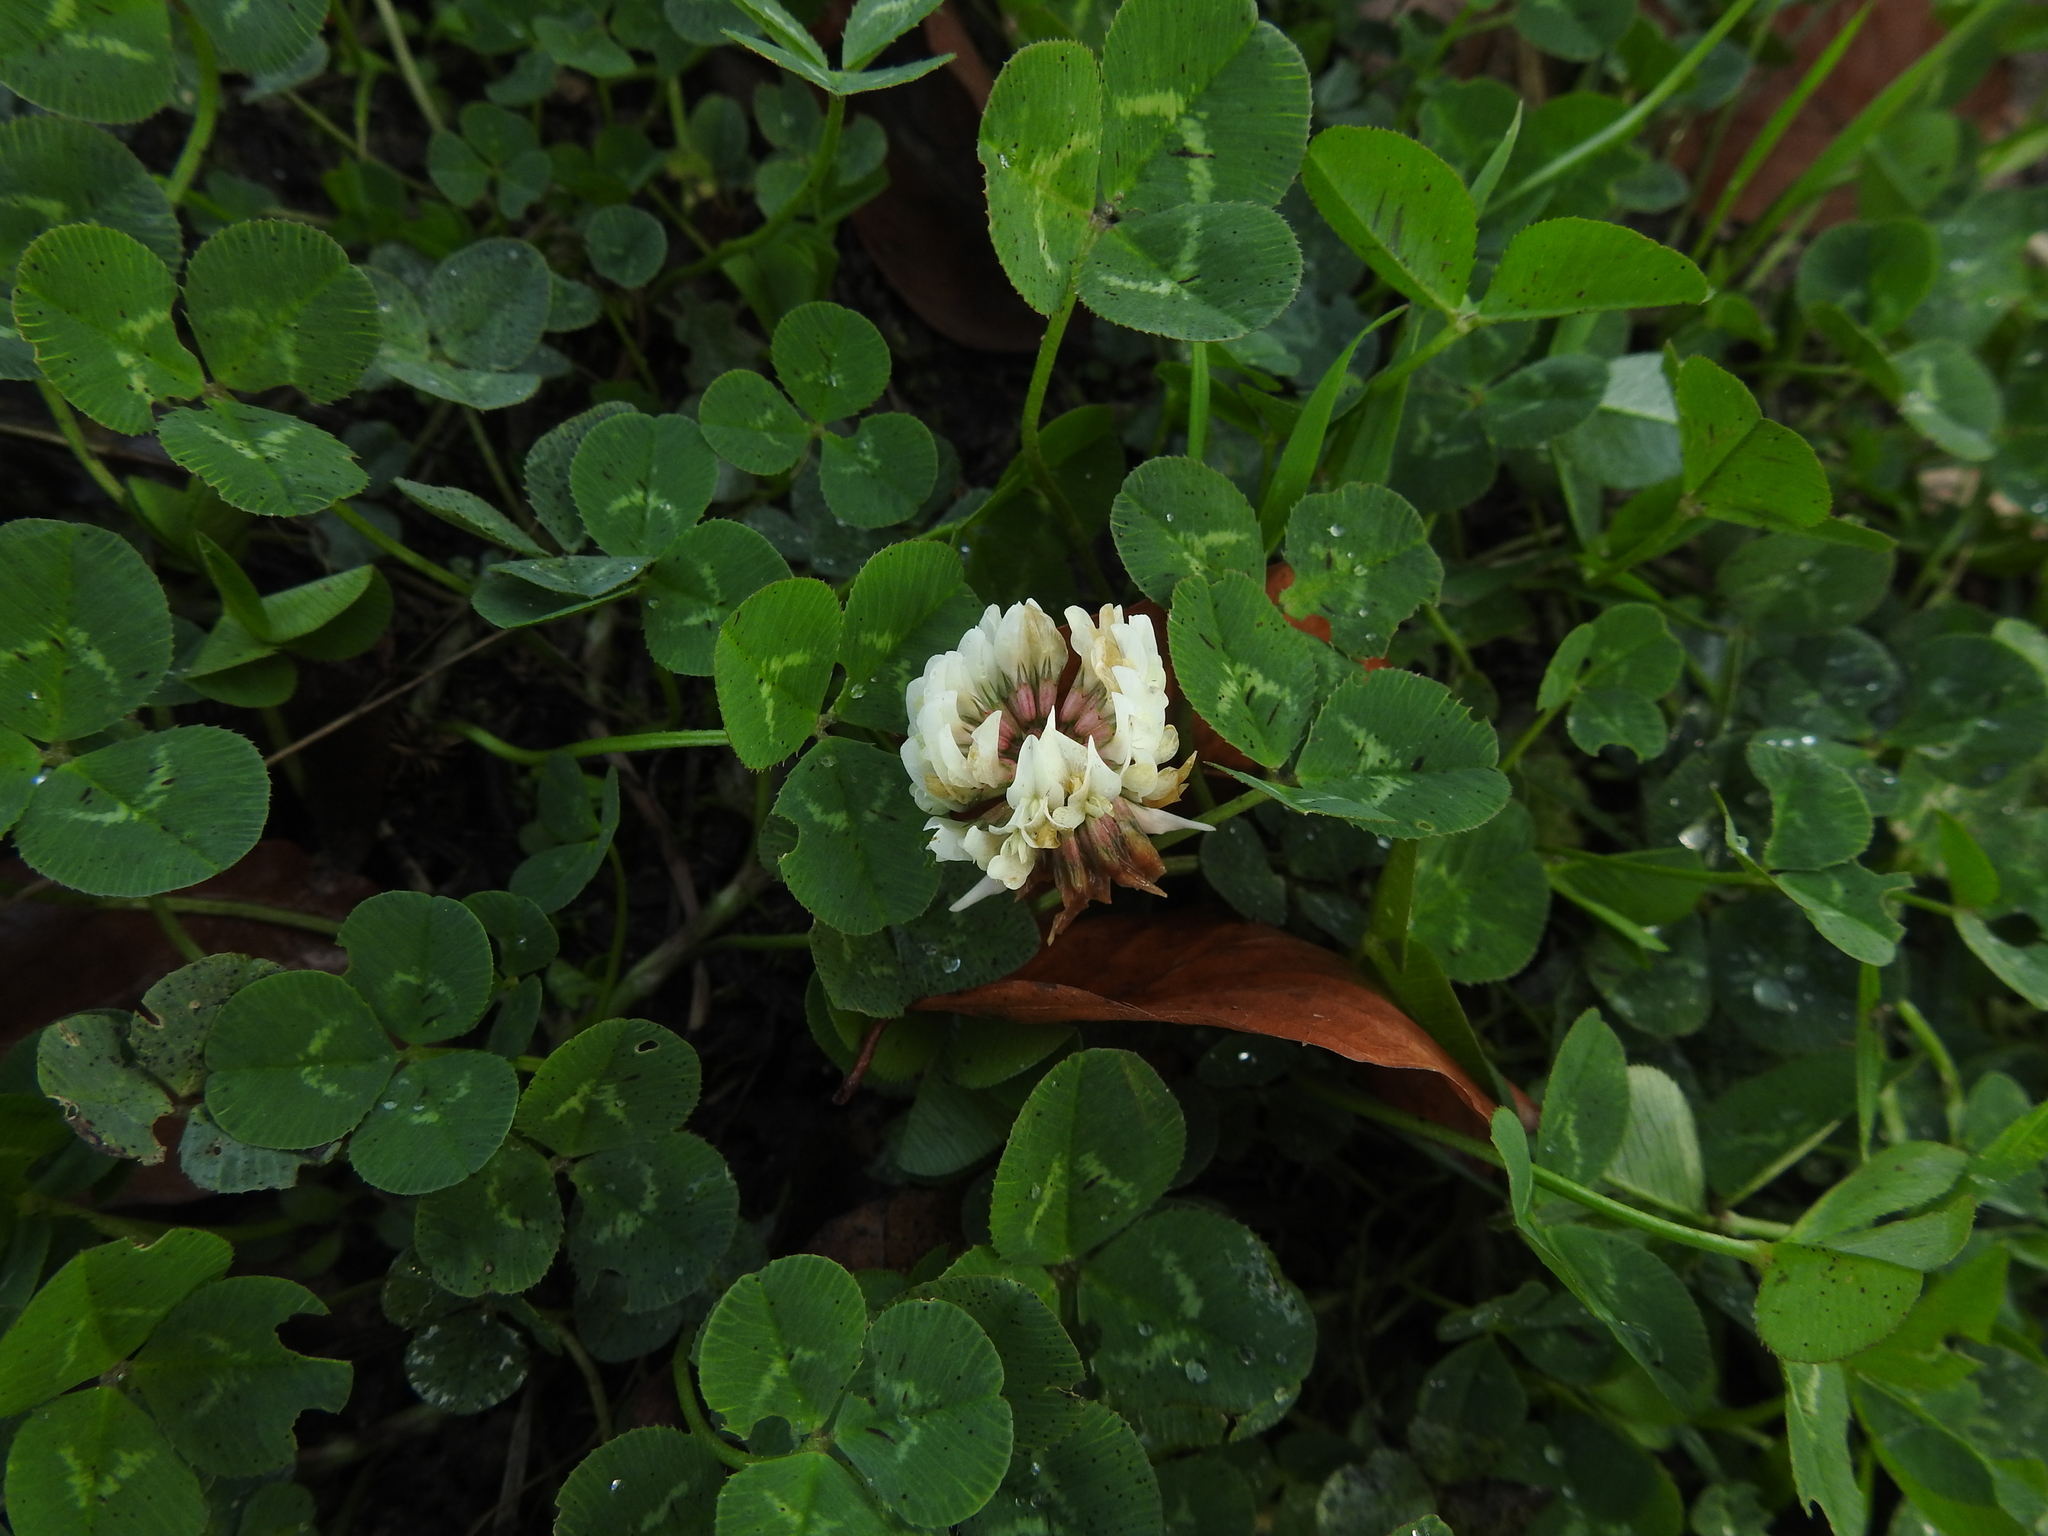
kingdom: Plantae
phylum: Tracheophyta
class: Magnoliopsida
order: Fabales
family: Fabaceae
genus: Trifolium
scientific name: Trifolium repens
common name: White clover
